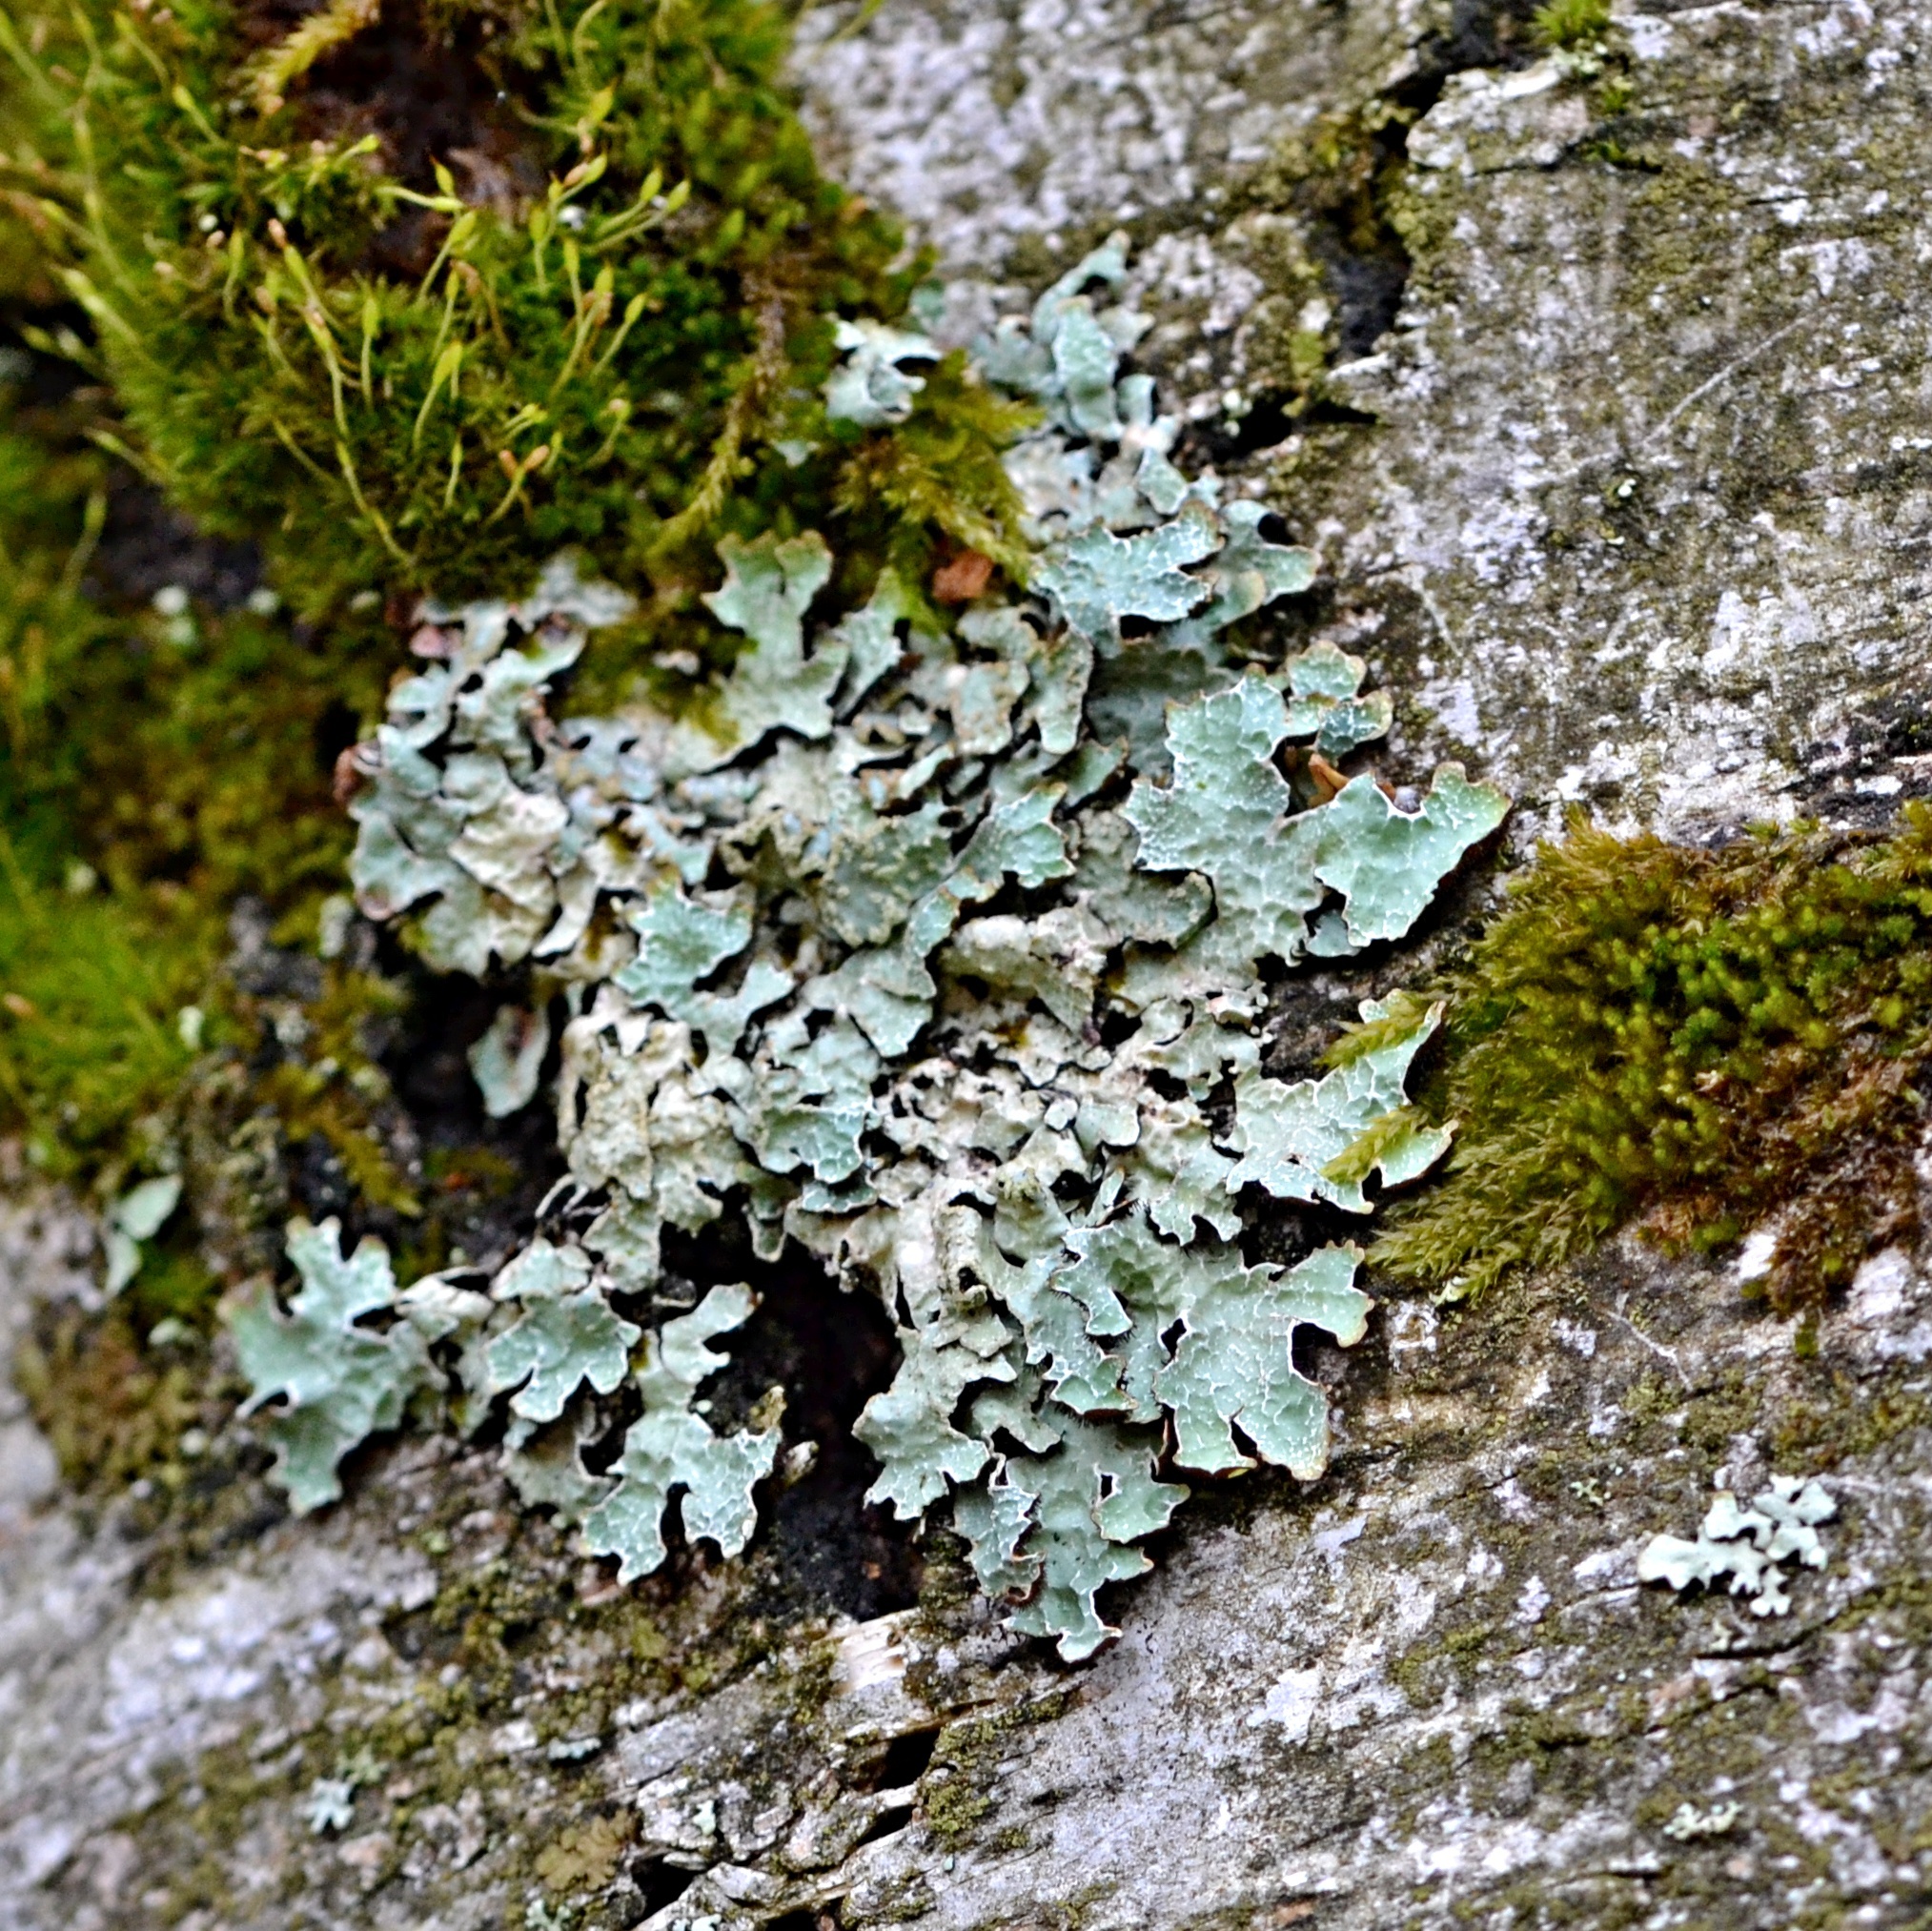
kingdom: Fungi
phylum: Ascomycota
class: Lecanoromycetes
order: Lecanorales
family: Parmeliaceae
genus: Parmelia
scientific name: Parmelia sulcata
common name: Netted shield lichen
